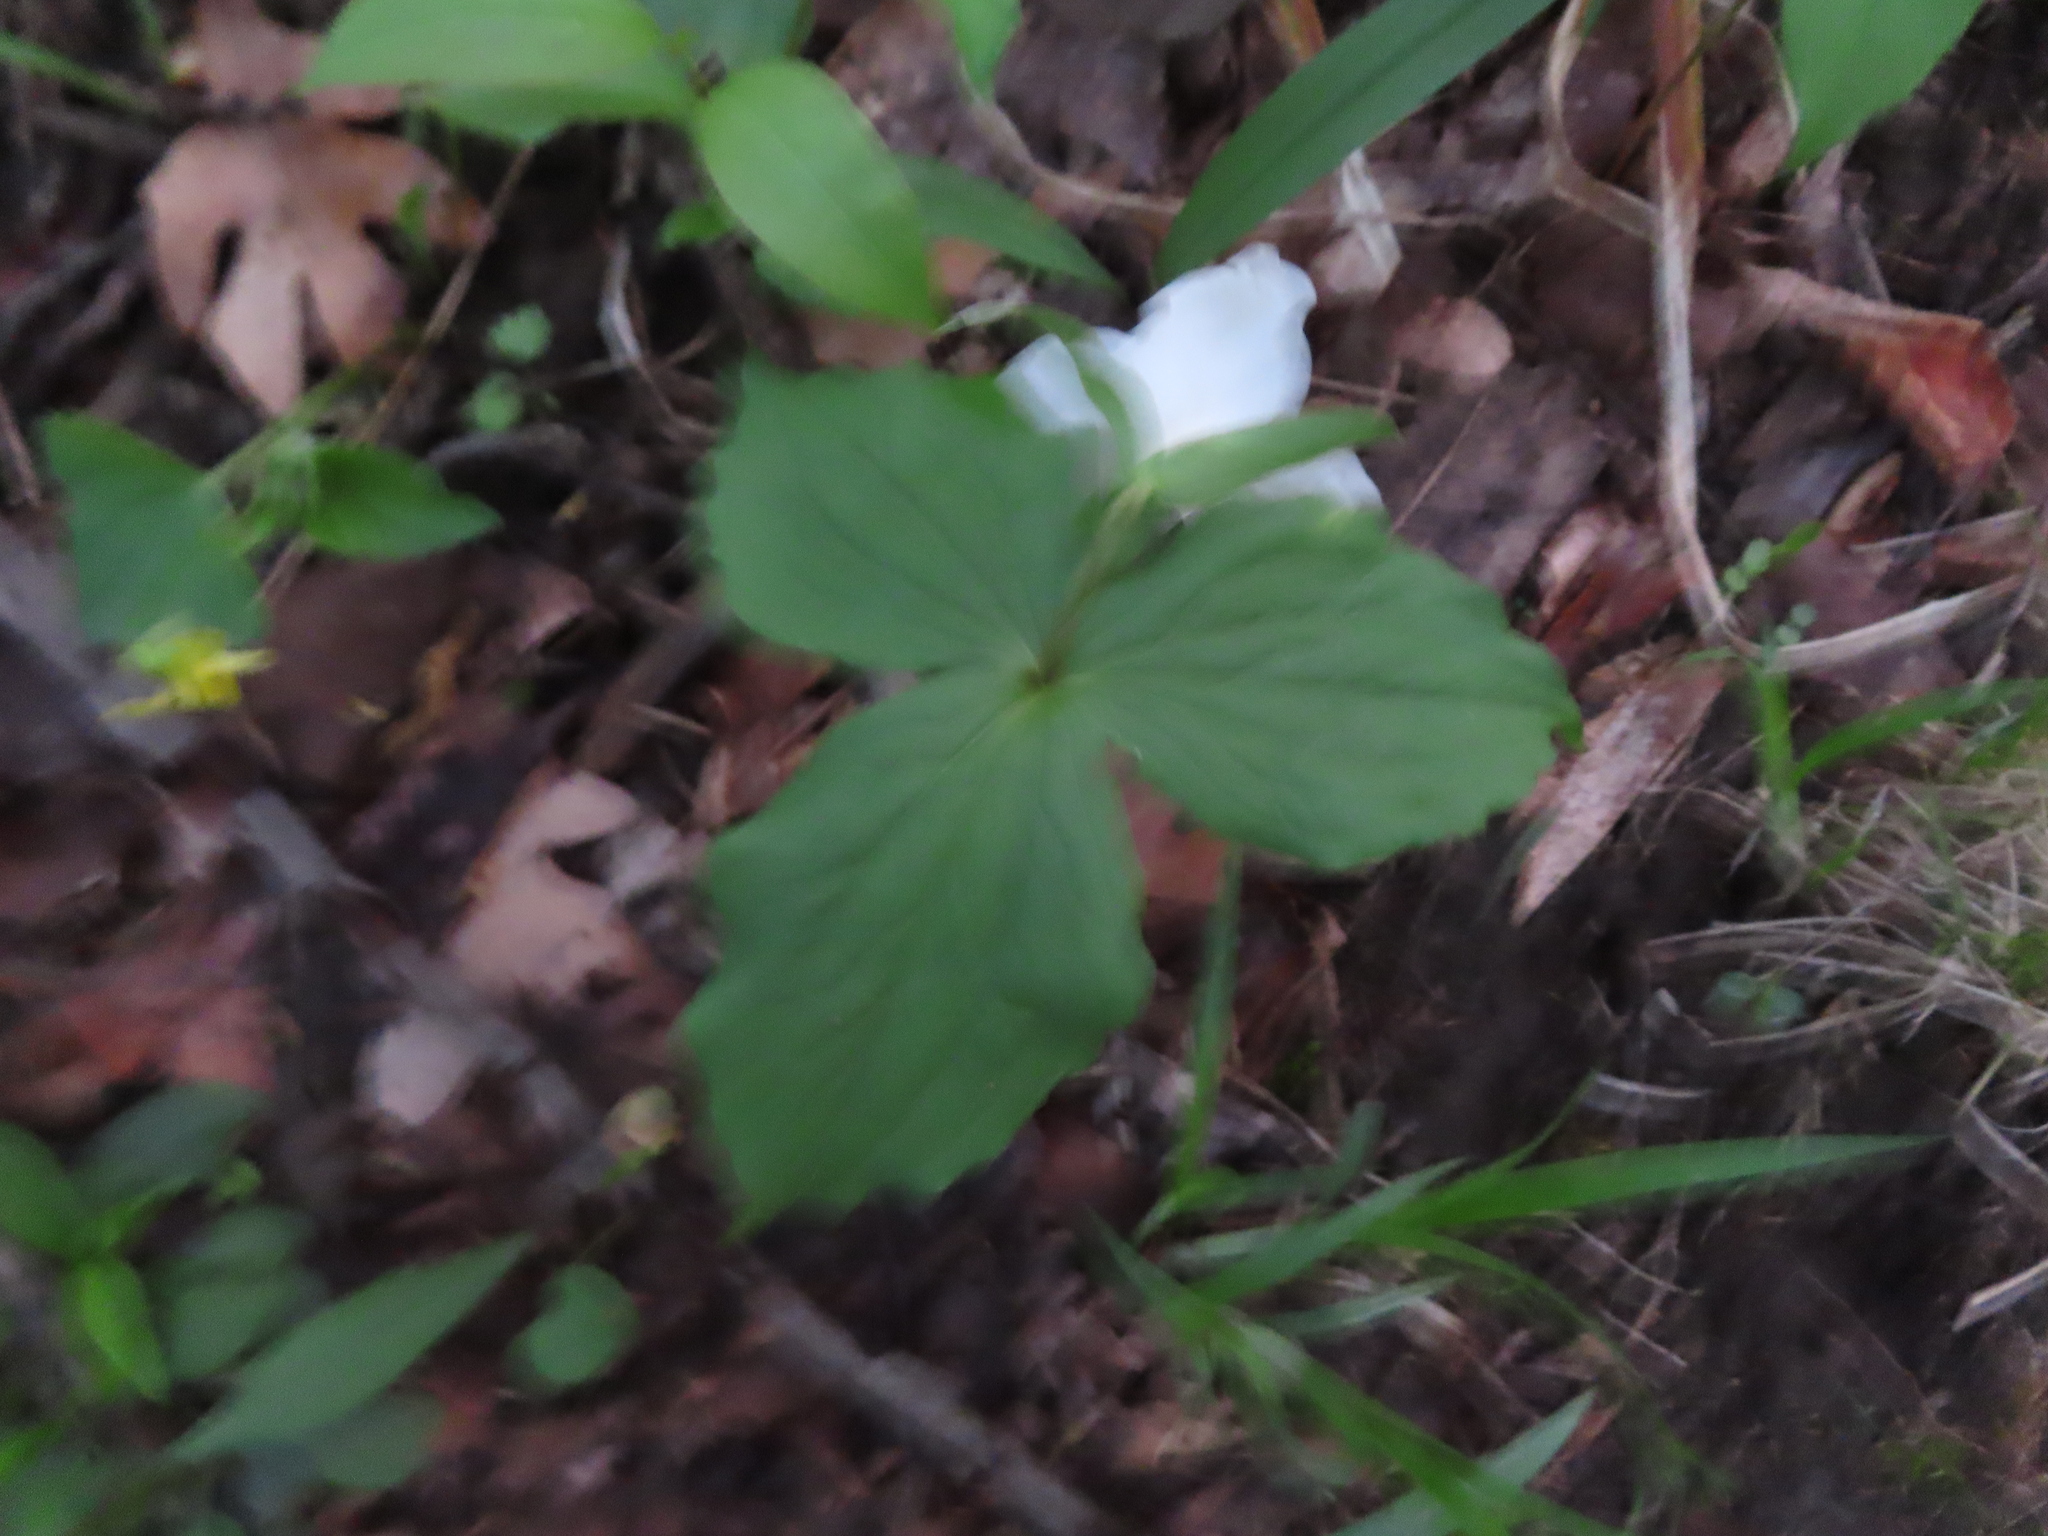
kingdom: Plantae
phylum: Tracheophyta
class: Liliopsida
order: Liliales
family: Melanthiaceae
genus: Trillium
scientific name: Trillium grandiflorum
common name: Great white trillium
